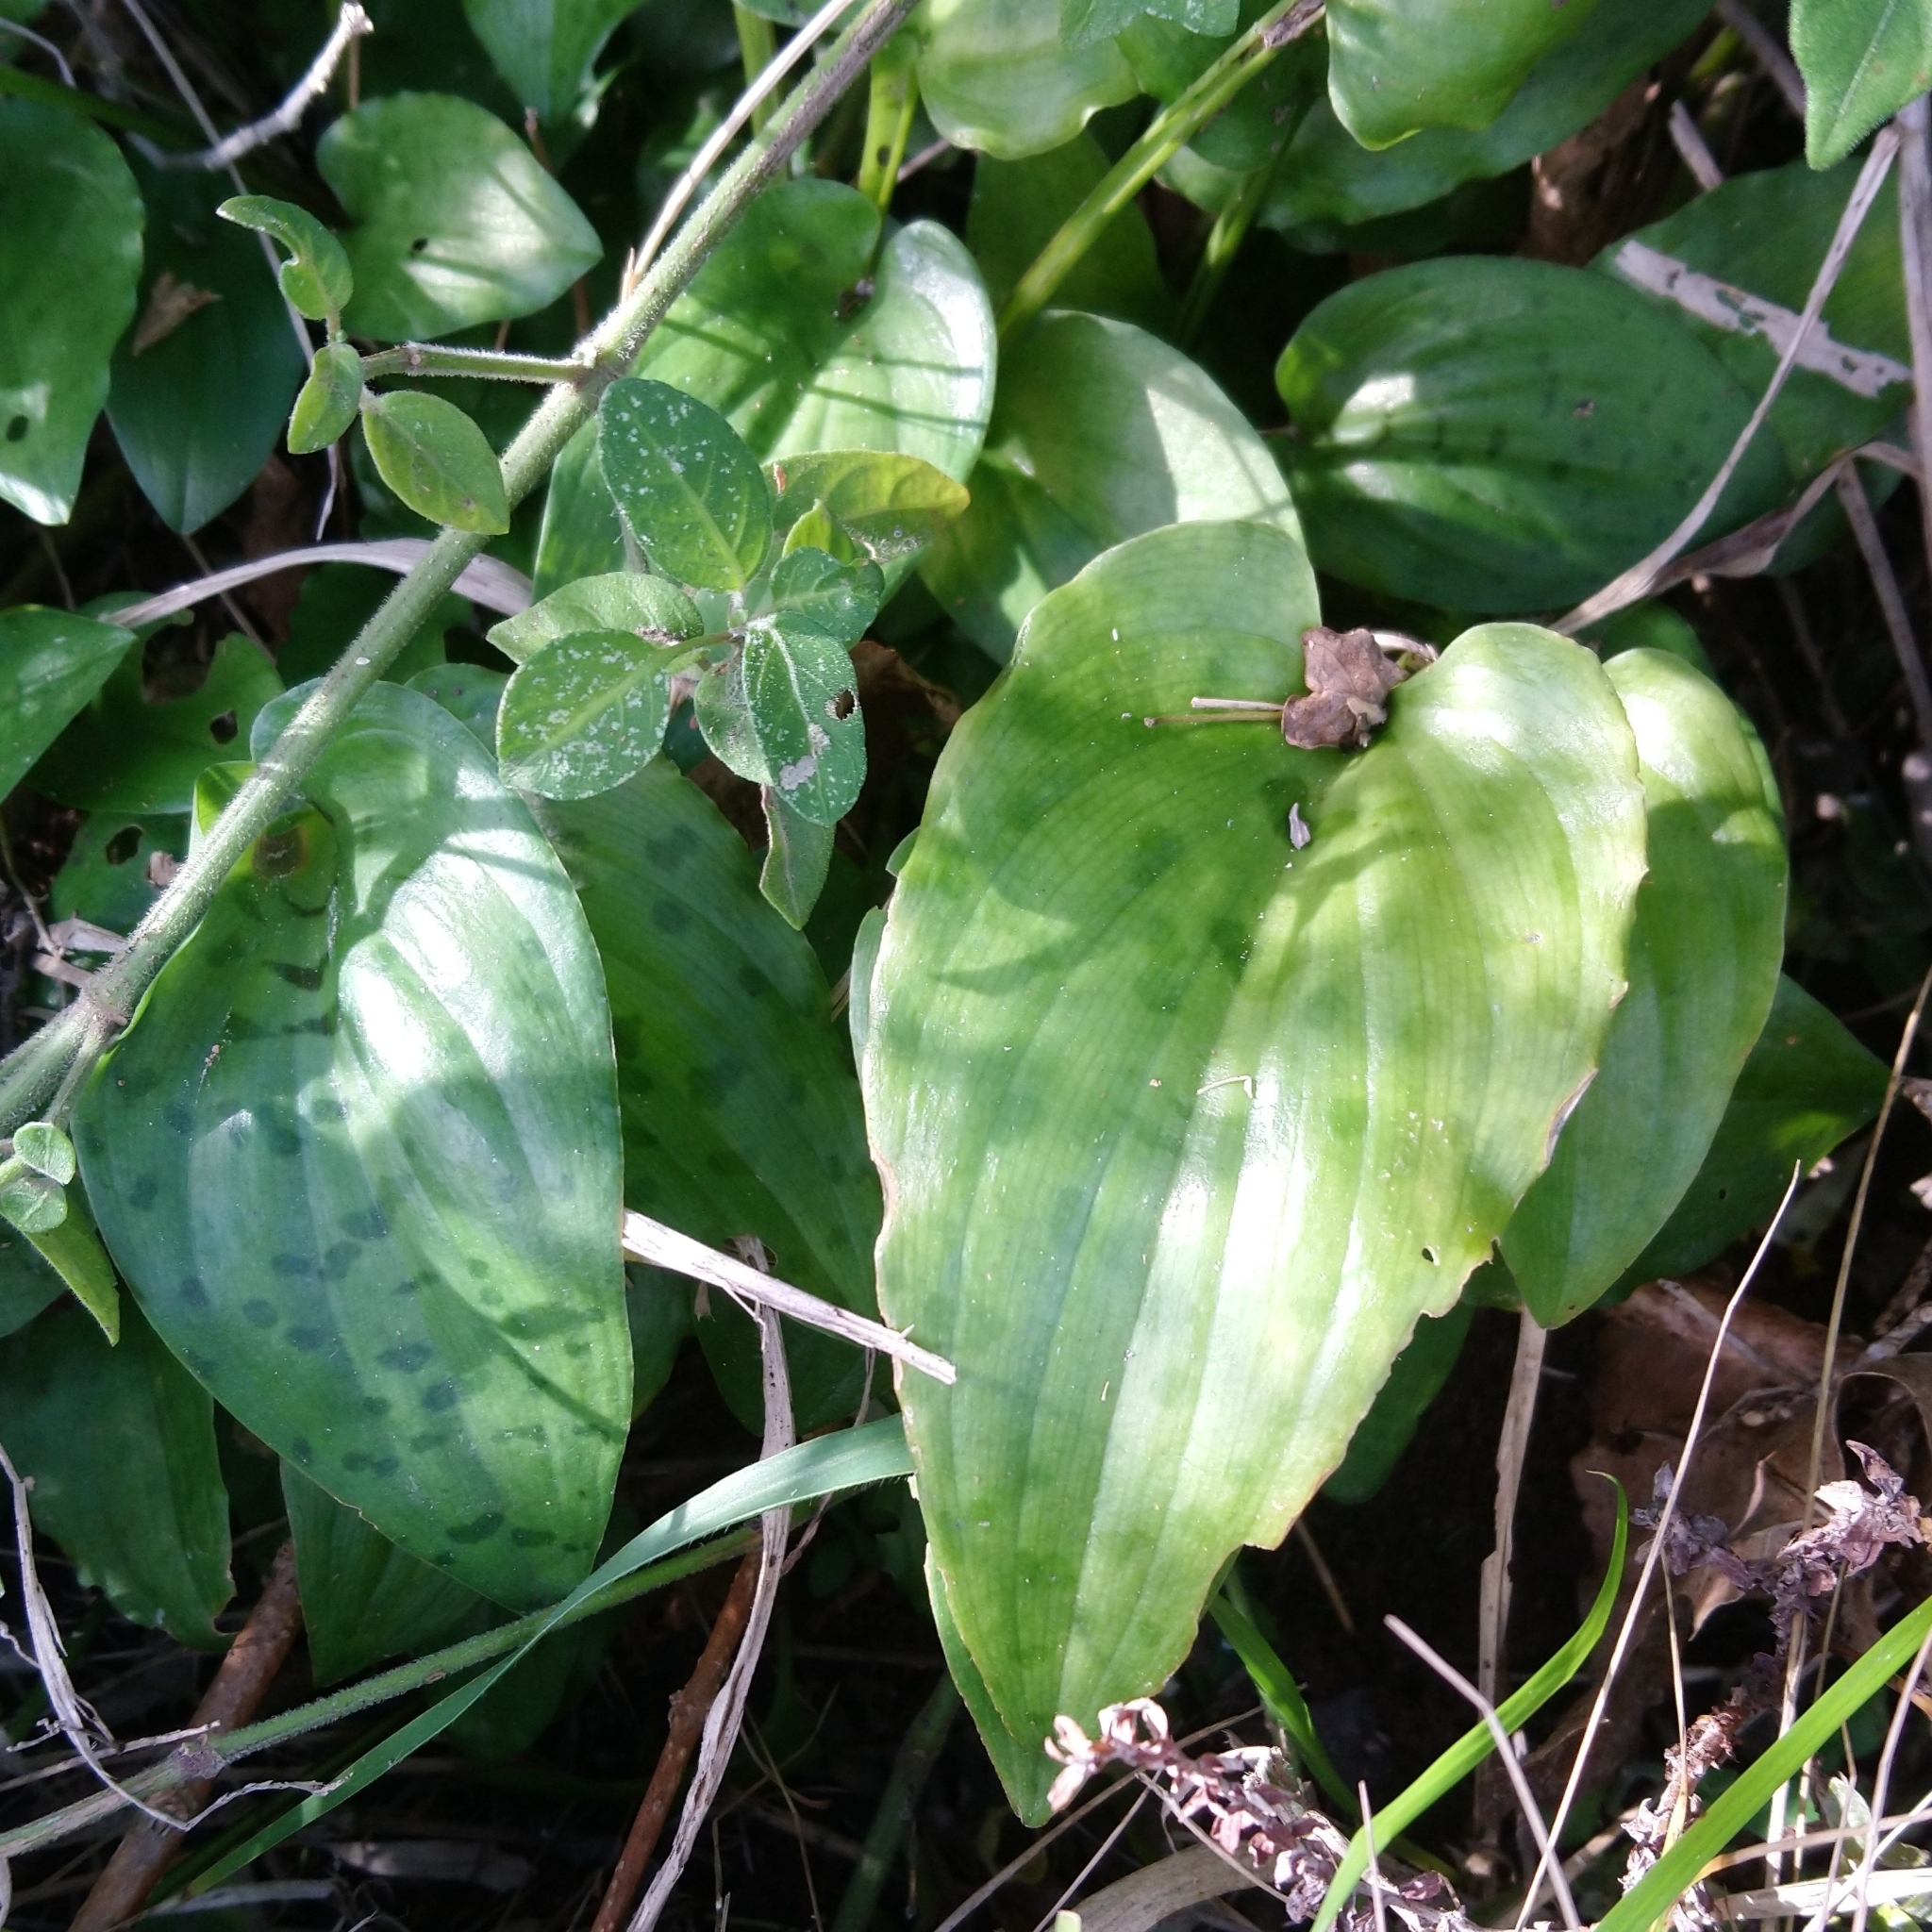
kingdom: Plantae
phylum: Tracheophyta
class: Liliopsida
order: Asparagales
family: Asparagaceae
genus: Drimiopsis
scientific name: Drimiopsis maculata
